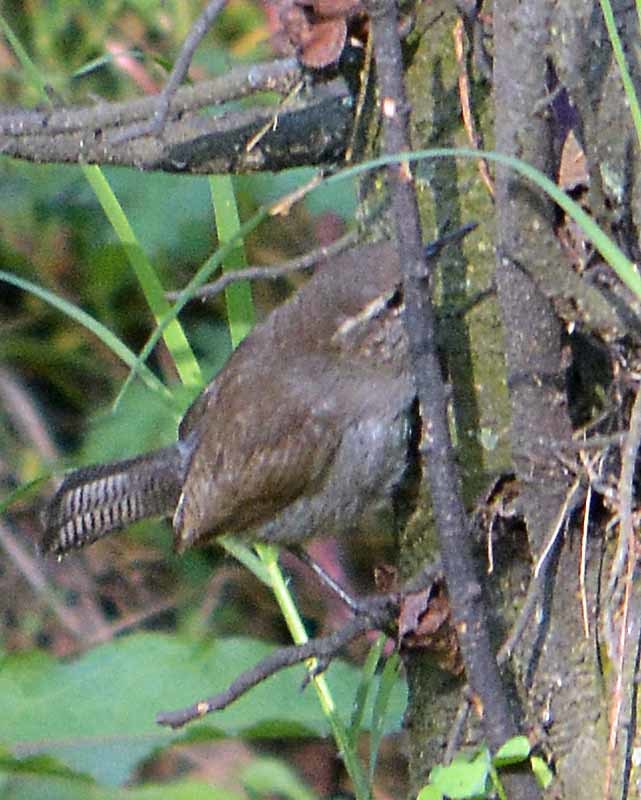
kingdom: Animalia
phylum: Chordata
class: Aves
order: Passeriformes
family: Troglodytidae
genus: Thryomanes
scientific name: Thryomanes bewickii
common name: Bewick's wren
